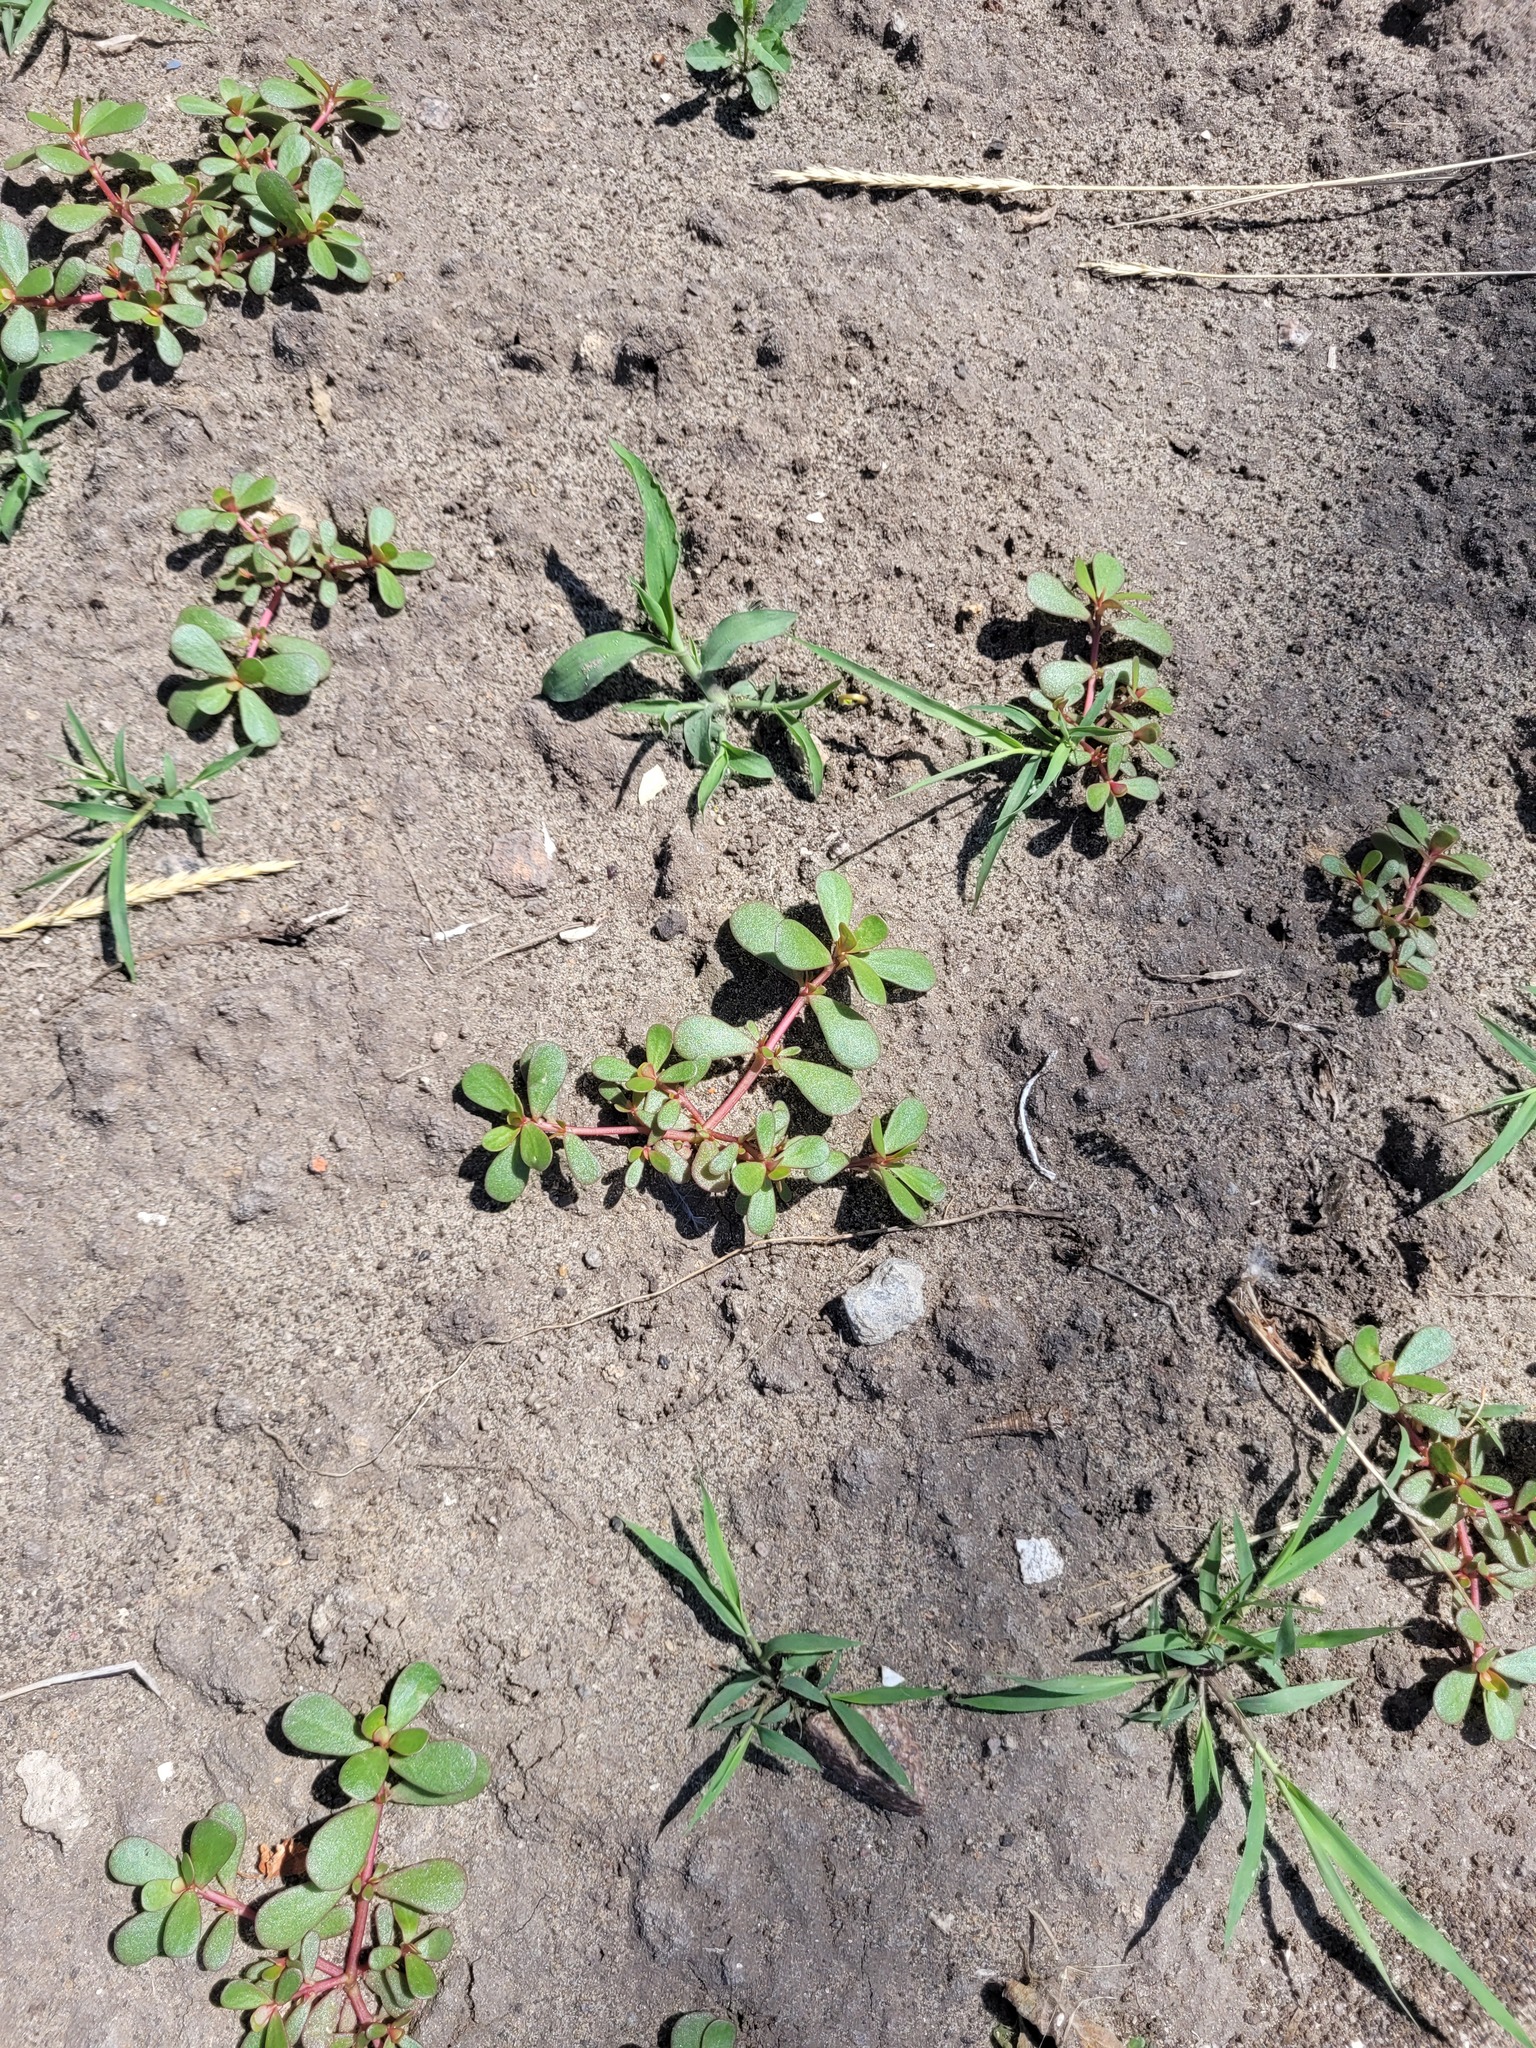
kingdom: Plantae
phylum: Tracheophyta
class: Magnoliopsida
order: Caryophyllales
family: Portulacaceae
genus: Portulaca
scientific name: Portulaca oleracea
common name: Common purslane
